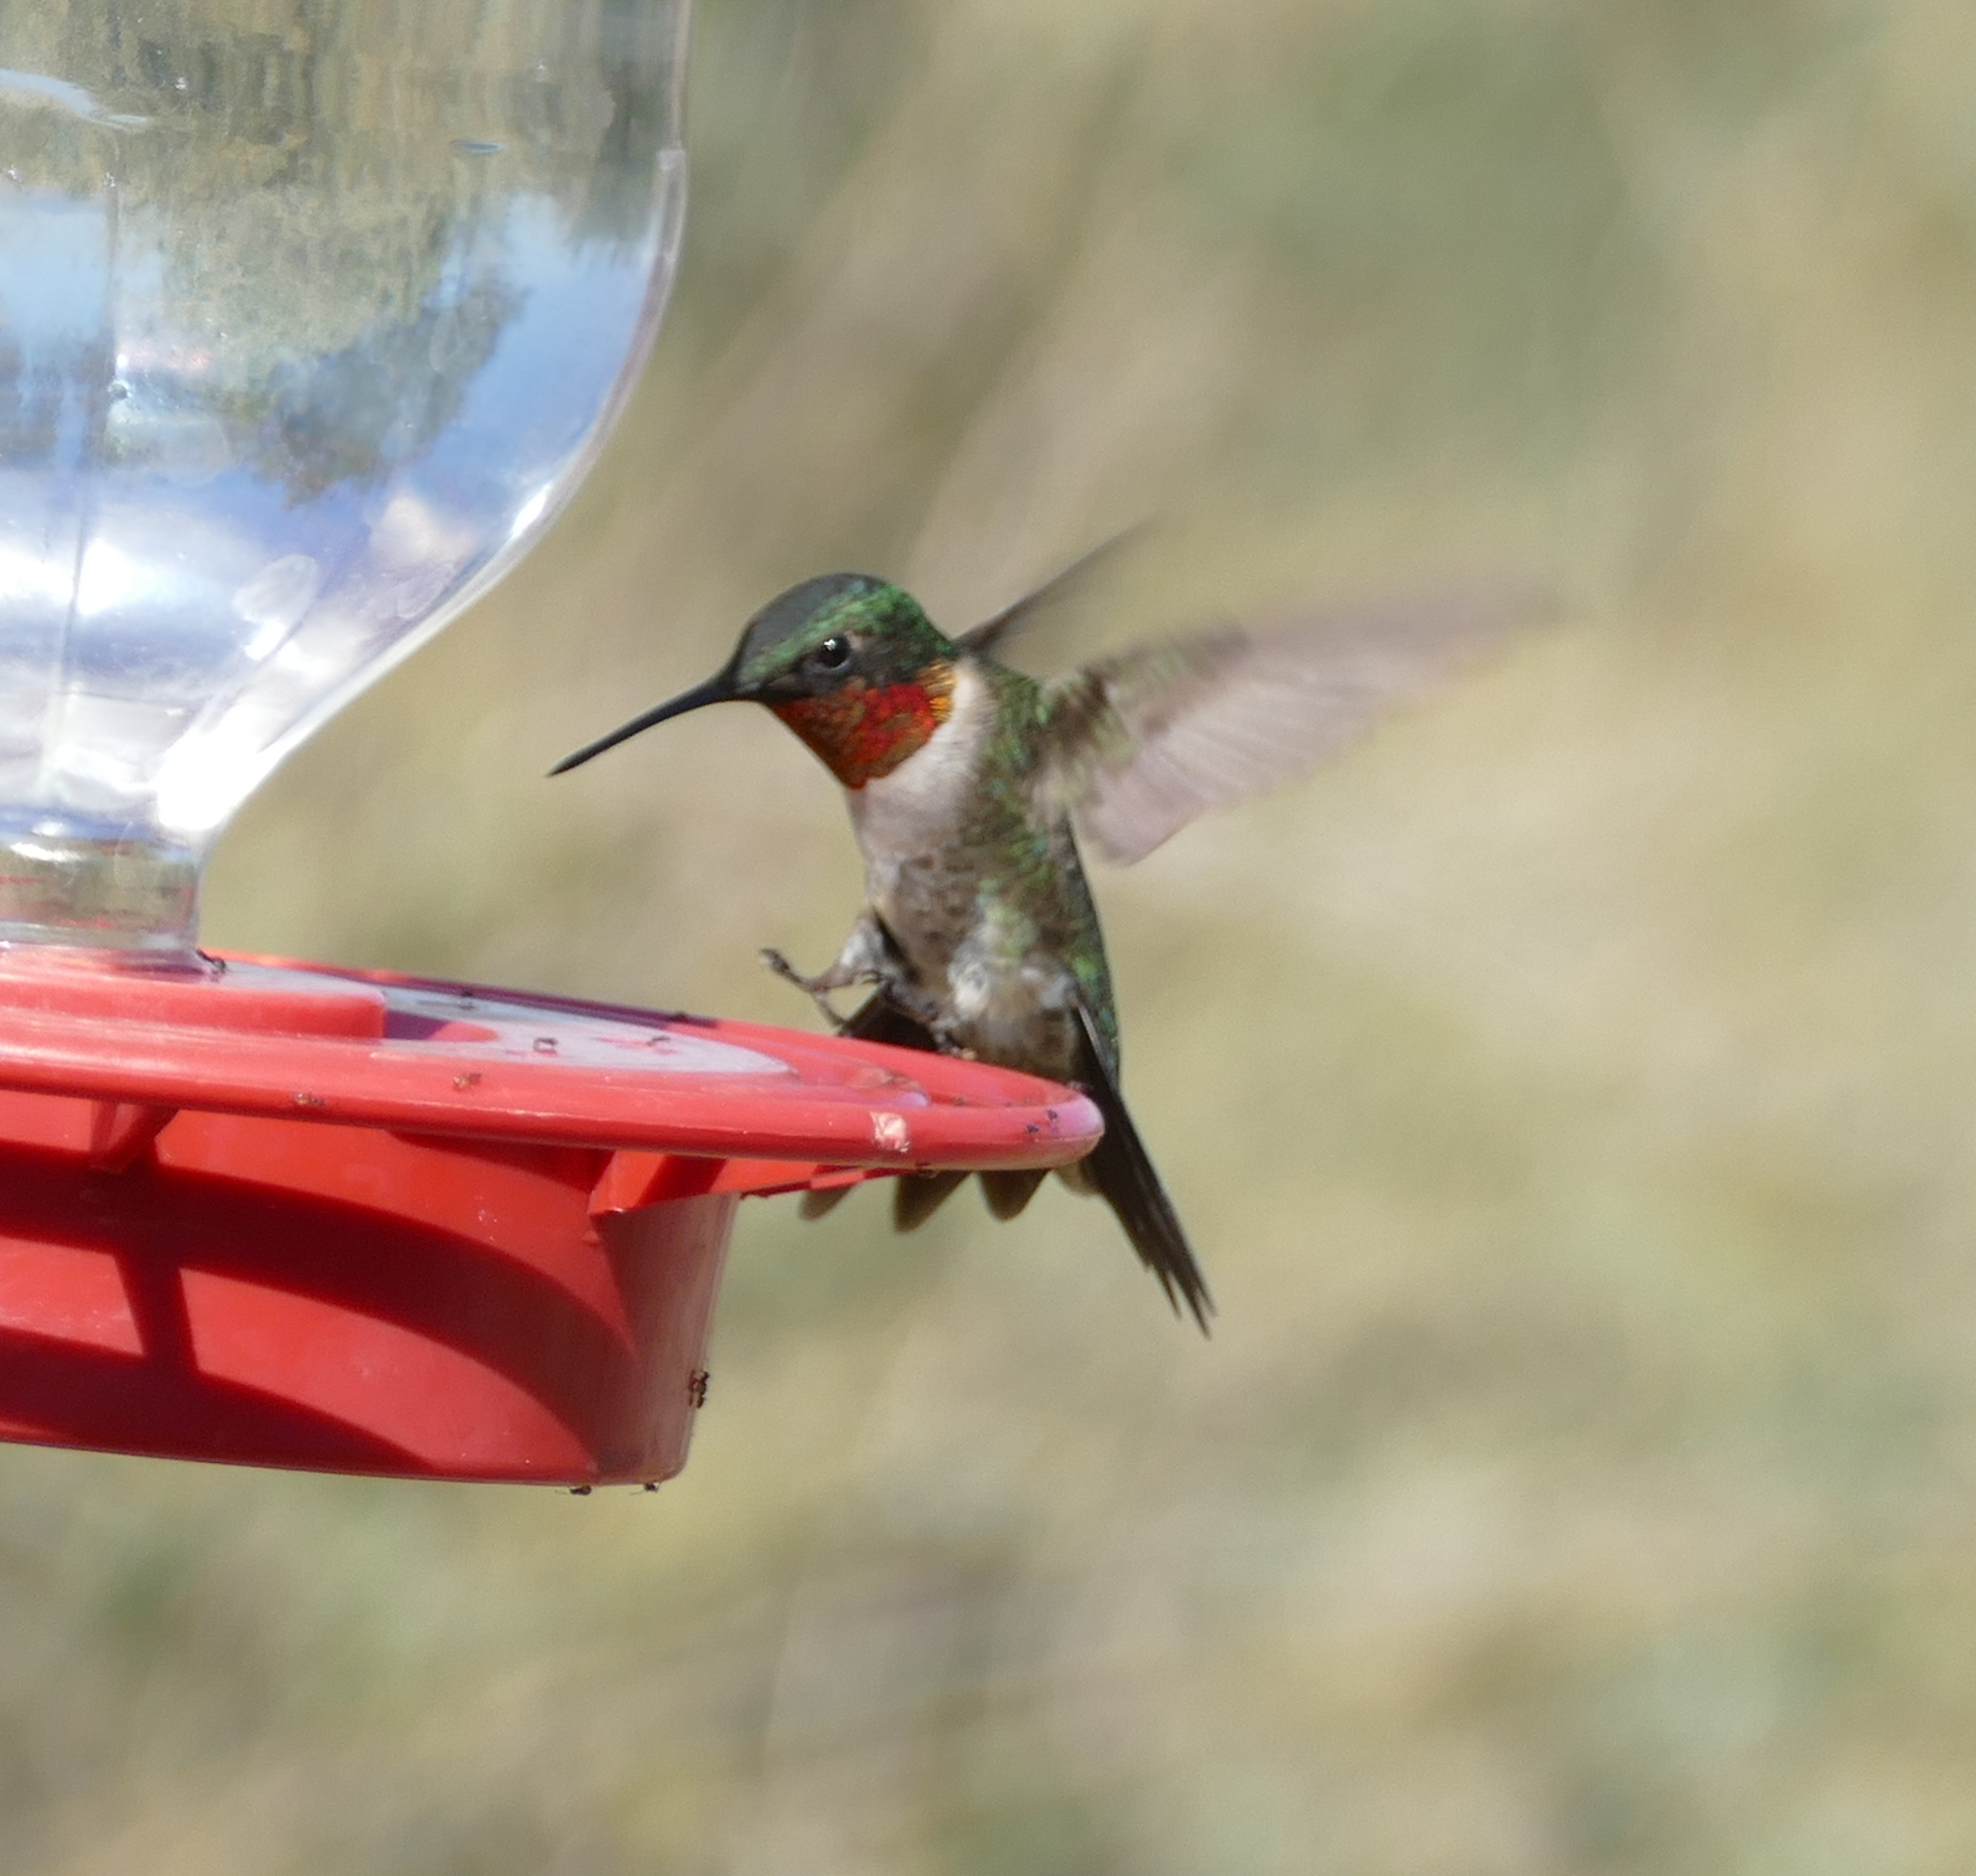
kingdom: Animalia
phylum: Chordata
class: Aves
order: Apodiformes
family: Trochilidae
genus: Archilochus
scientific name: Archilochus colubris
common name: Ruby-throated hummingbird
